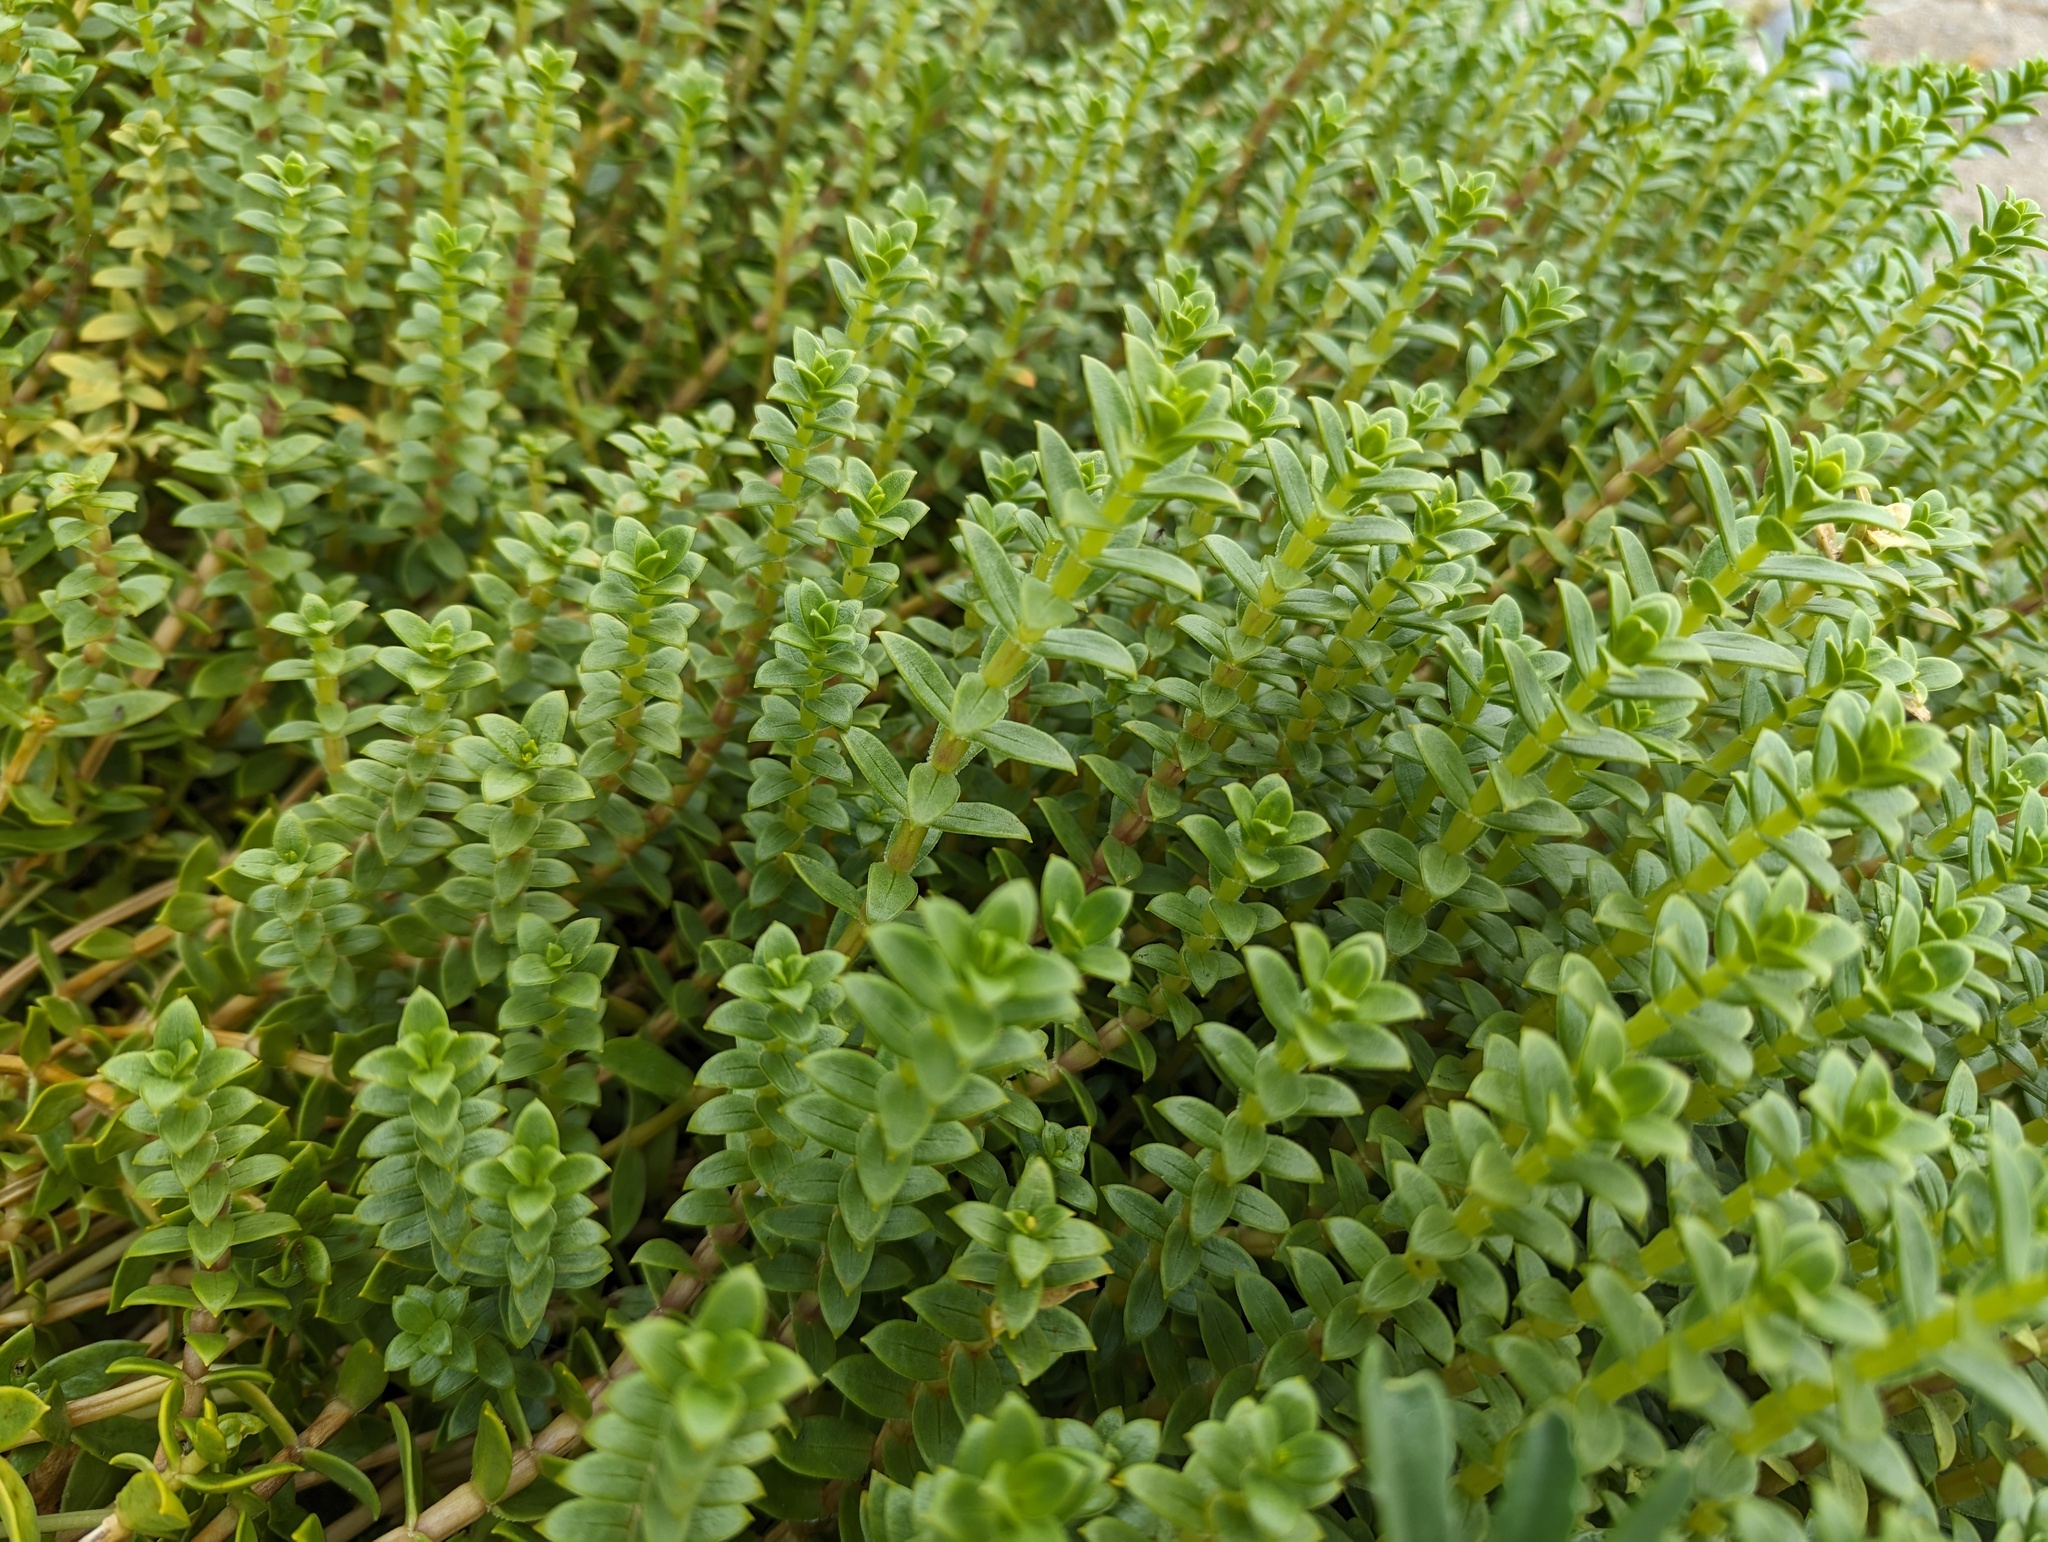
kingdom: Plantae
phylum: Tracheophyta
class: Magnoliopsida
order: Caryophyllales
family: Caryophyllaceae
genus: Honckenya
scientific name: Honckenya peploides
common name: Sea sandwort
